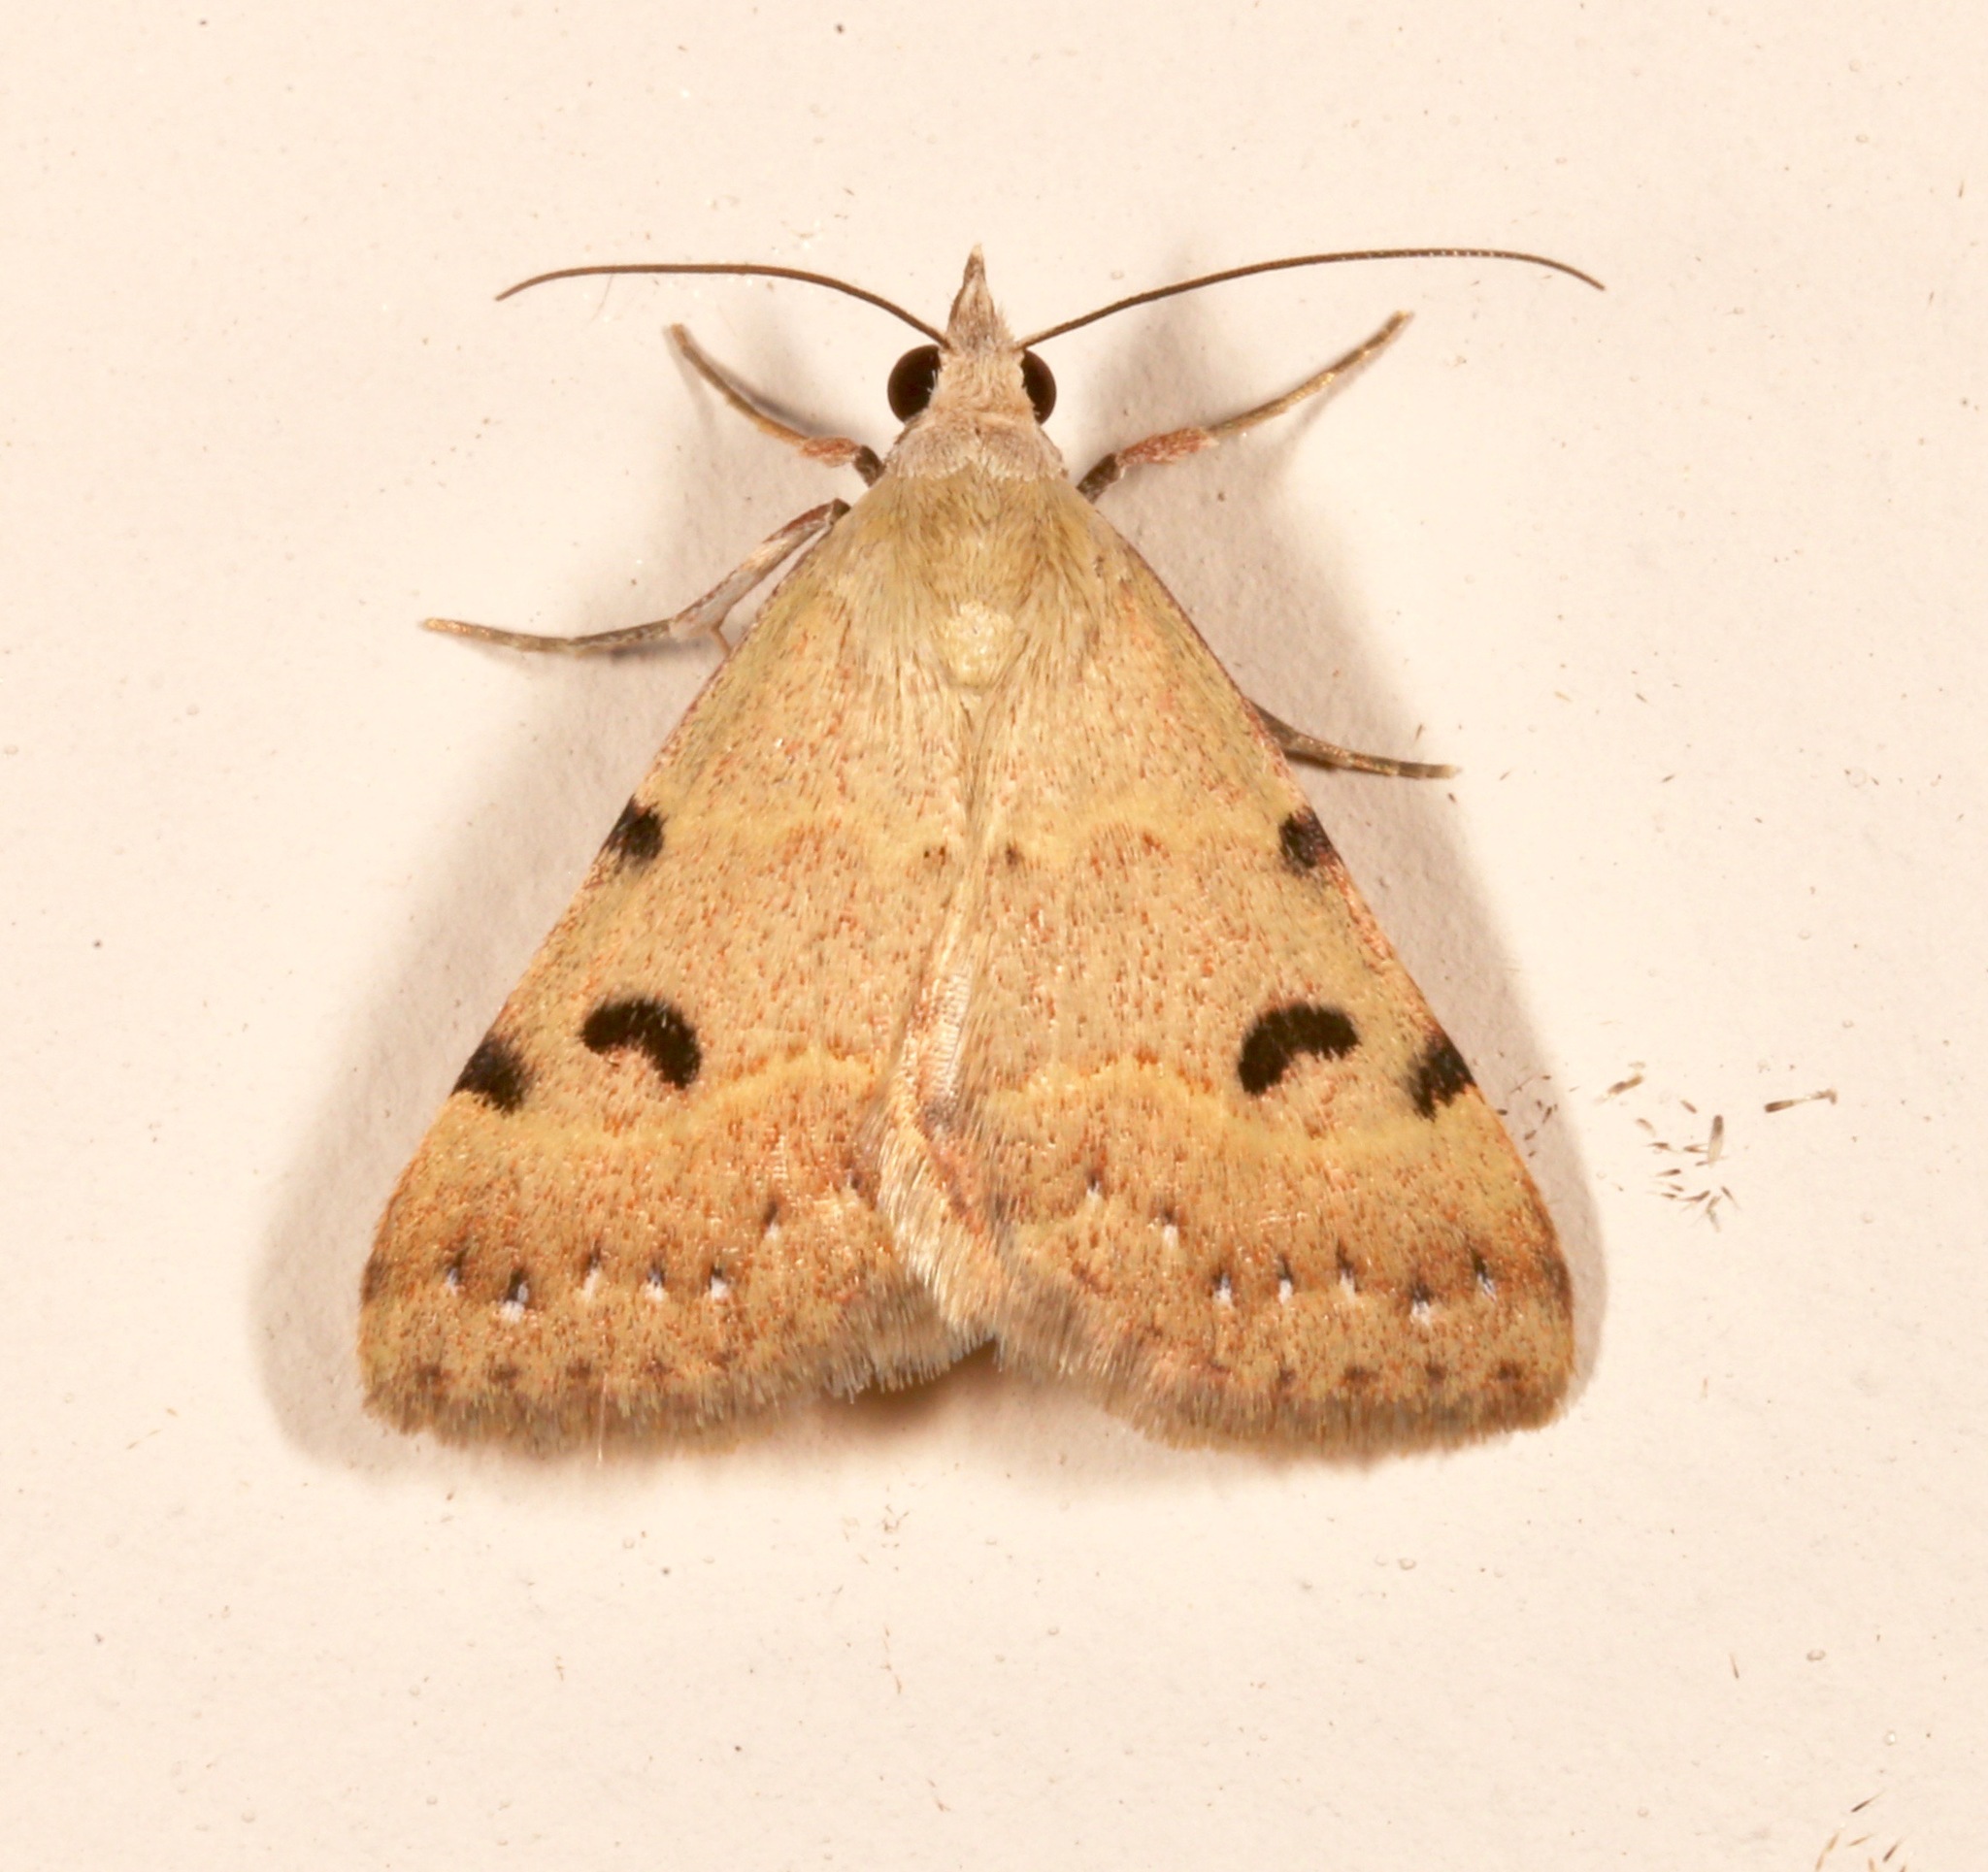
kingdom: Animalia
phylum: Arthropoda
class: Insecta
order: Lepidoptera
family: Erebidae
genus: Hemeroplanis
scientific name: Hemeroplanis historialis
